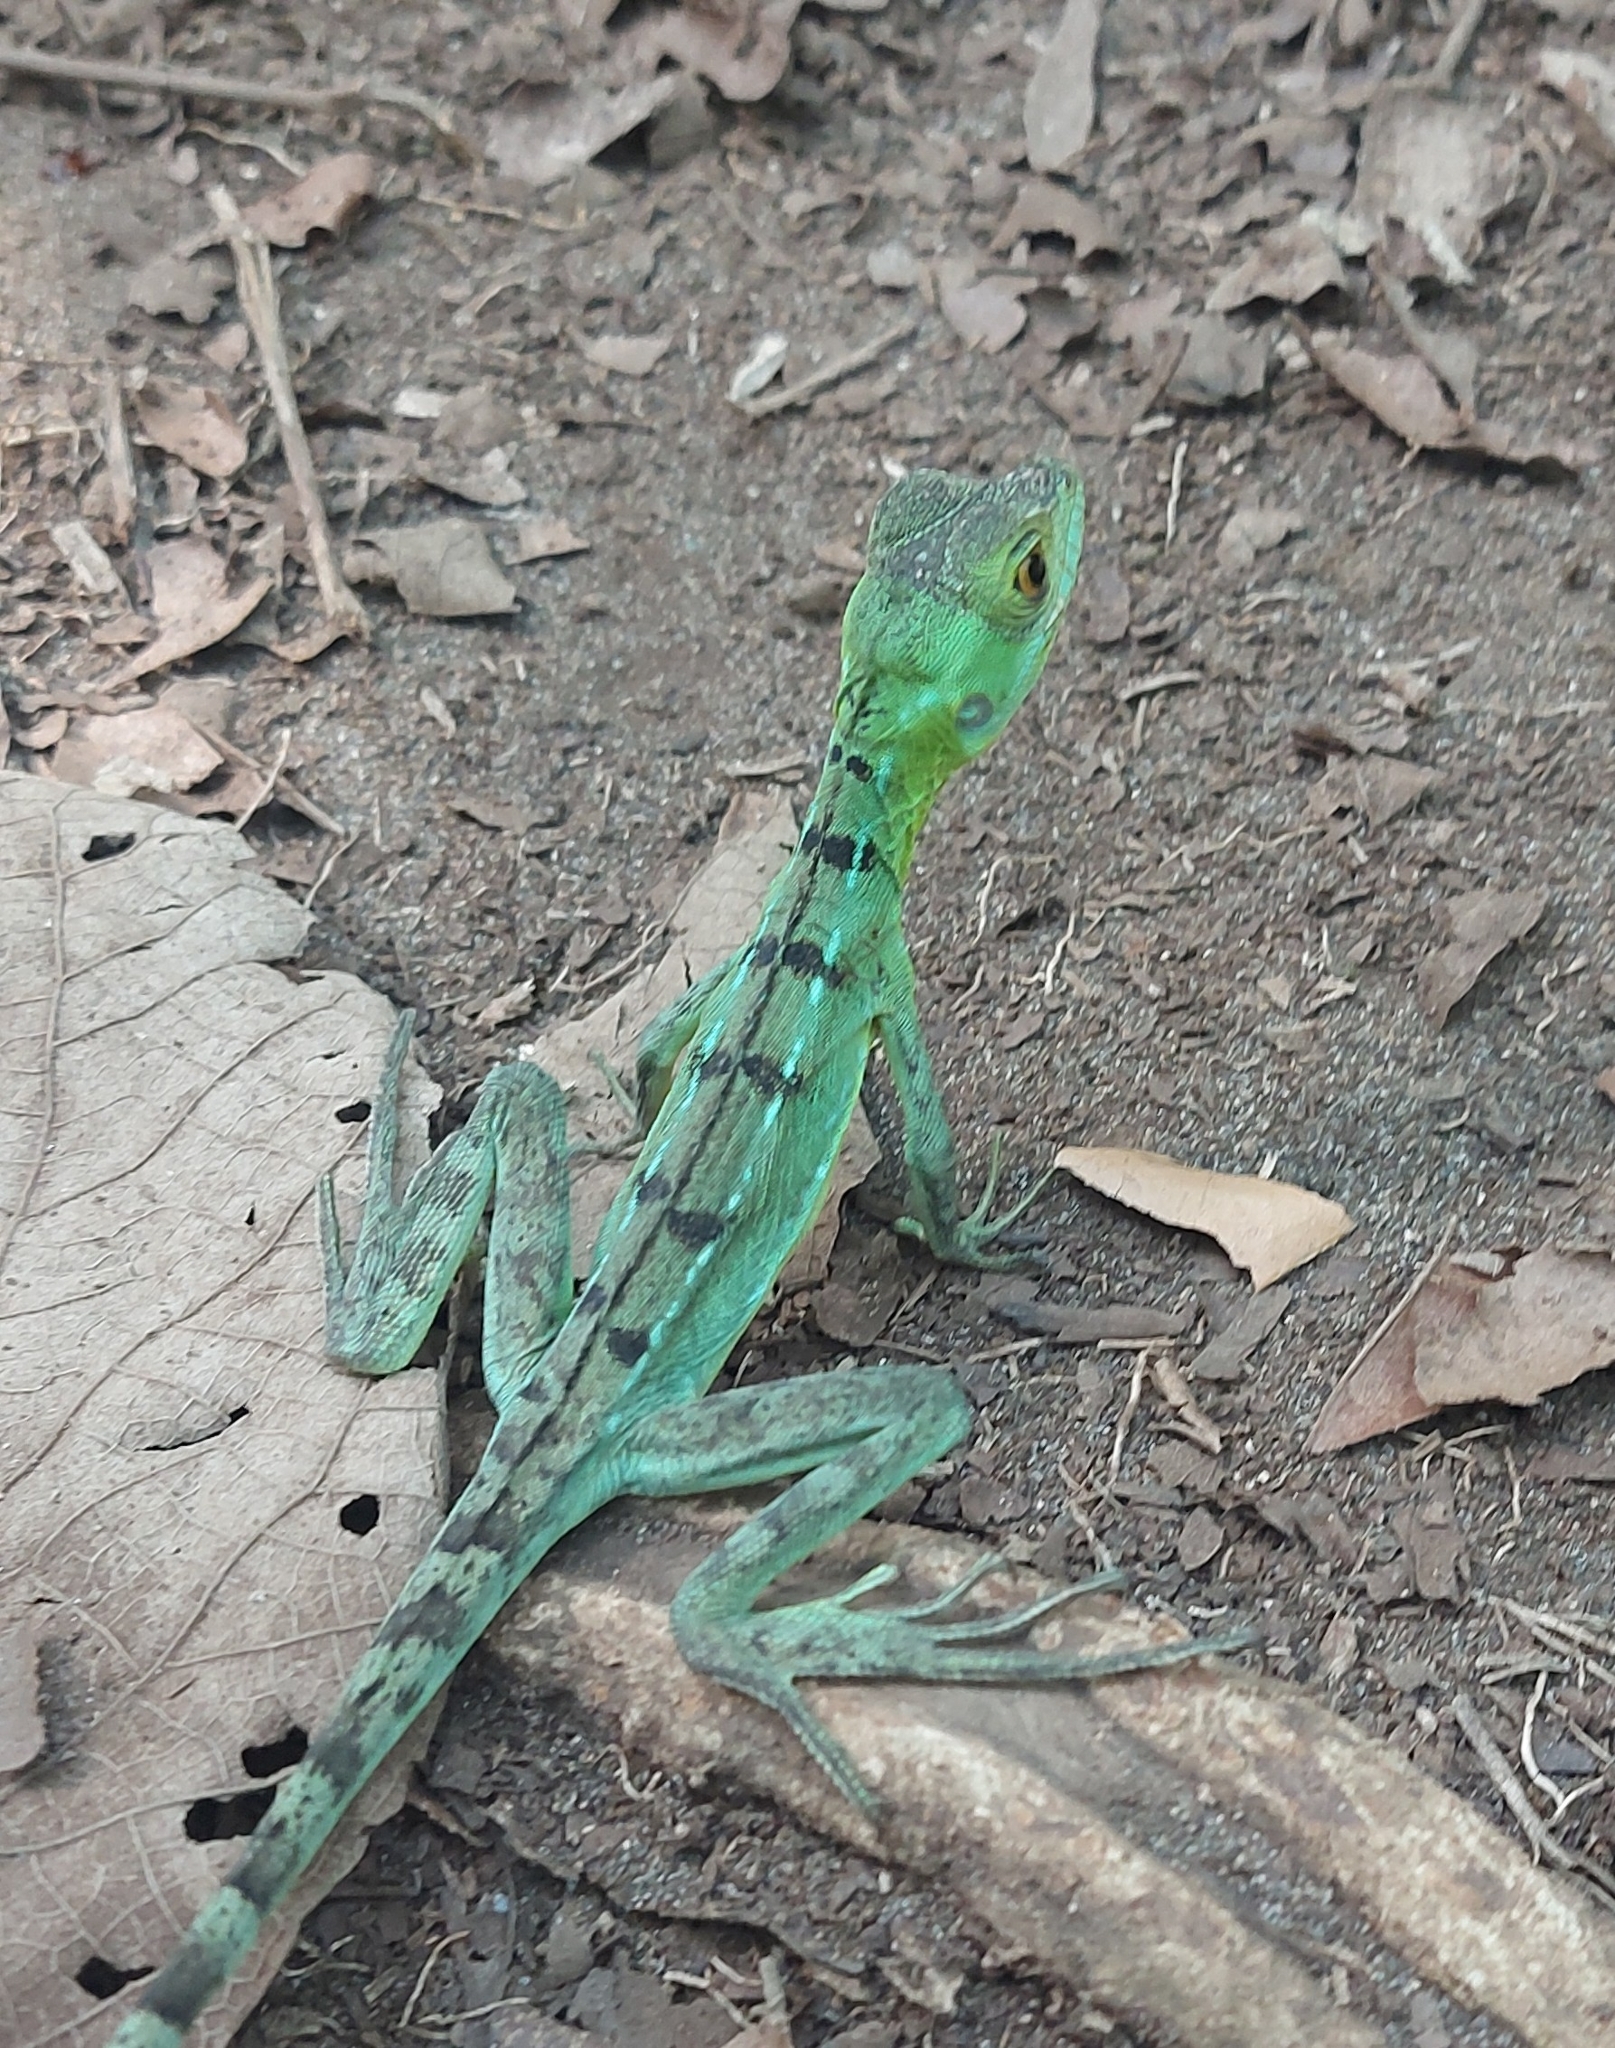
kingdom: Animalia
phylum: Chordata
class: Squamata
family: Corytophanidae
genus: Basiliscus
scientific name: Basiliscus plumifrons
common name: Green basilisk
